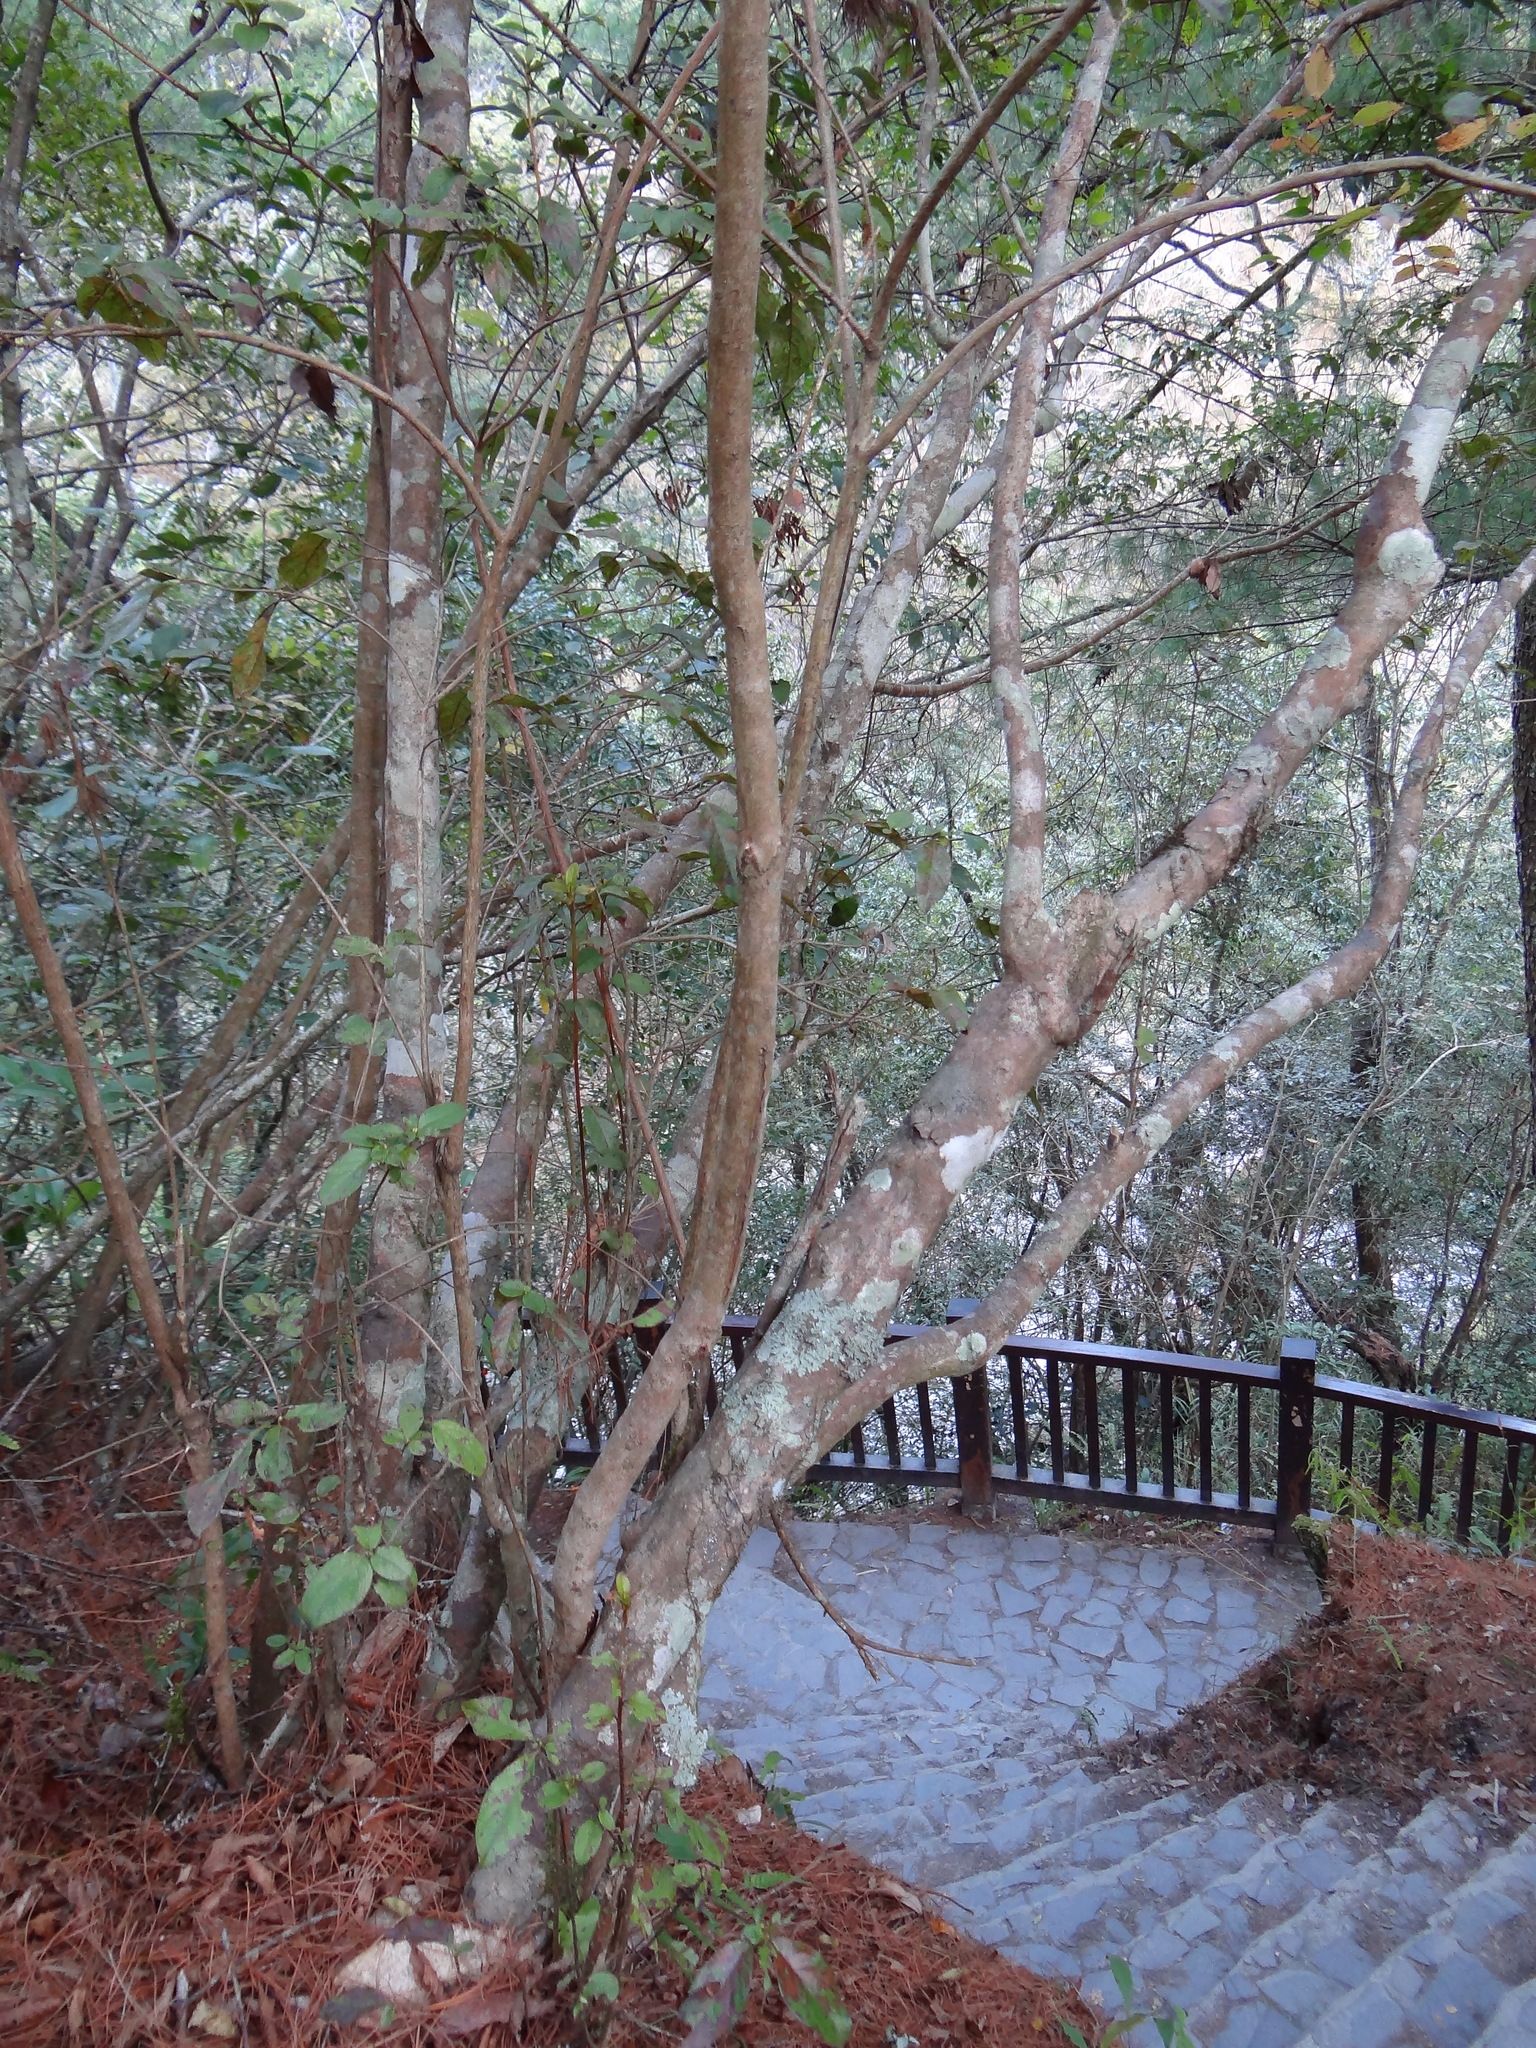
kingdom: Plantae
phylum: Tracheophyta
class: Magnoliopsida
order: Ericales
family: Ericaceae
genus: Rhododendron
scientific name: Rhododendron breviperulatum
